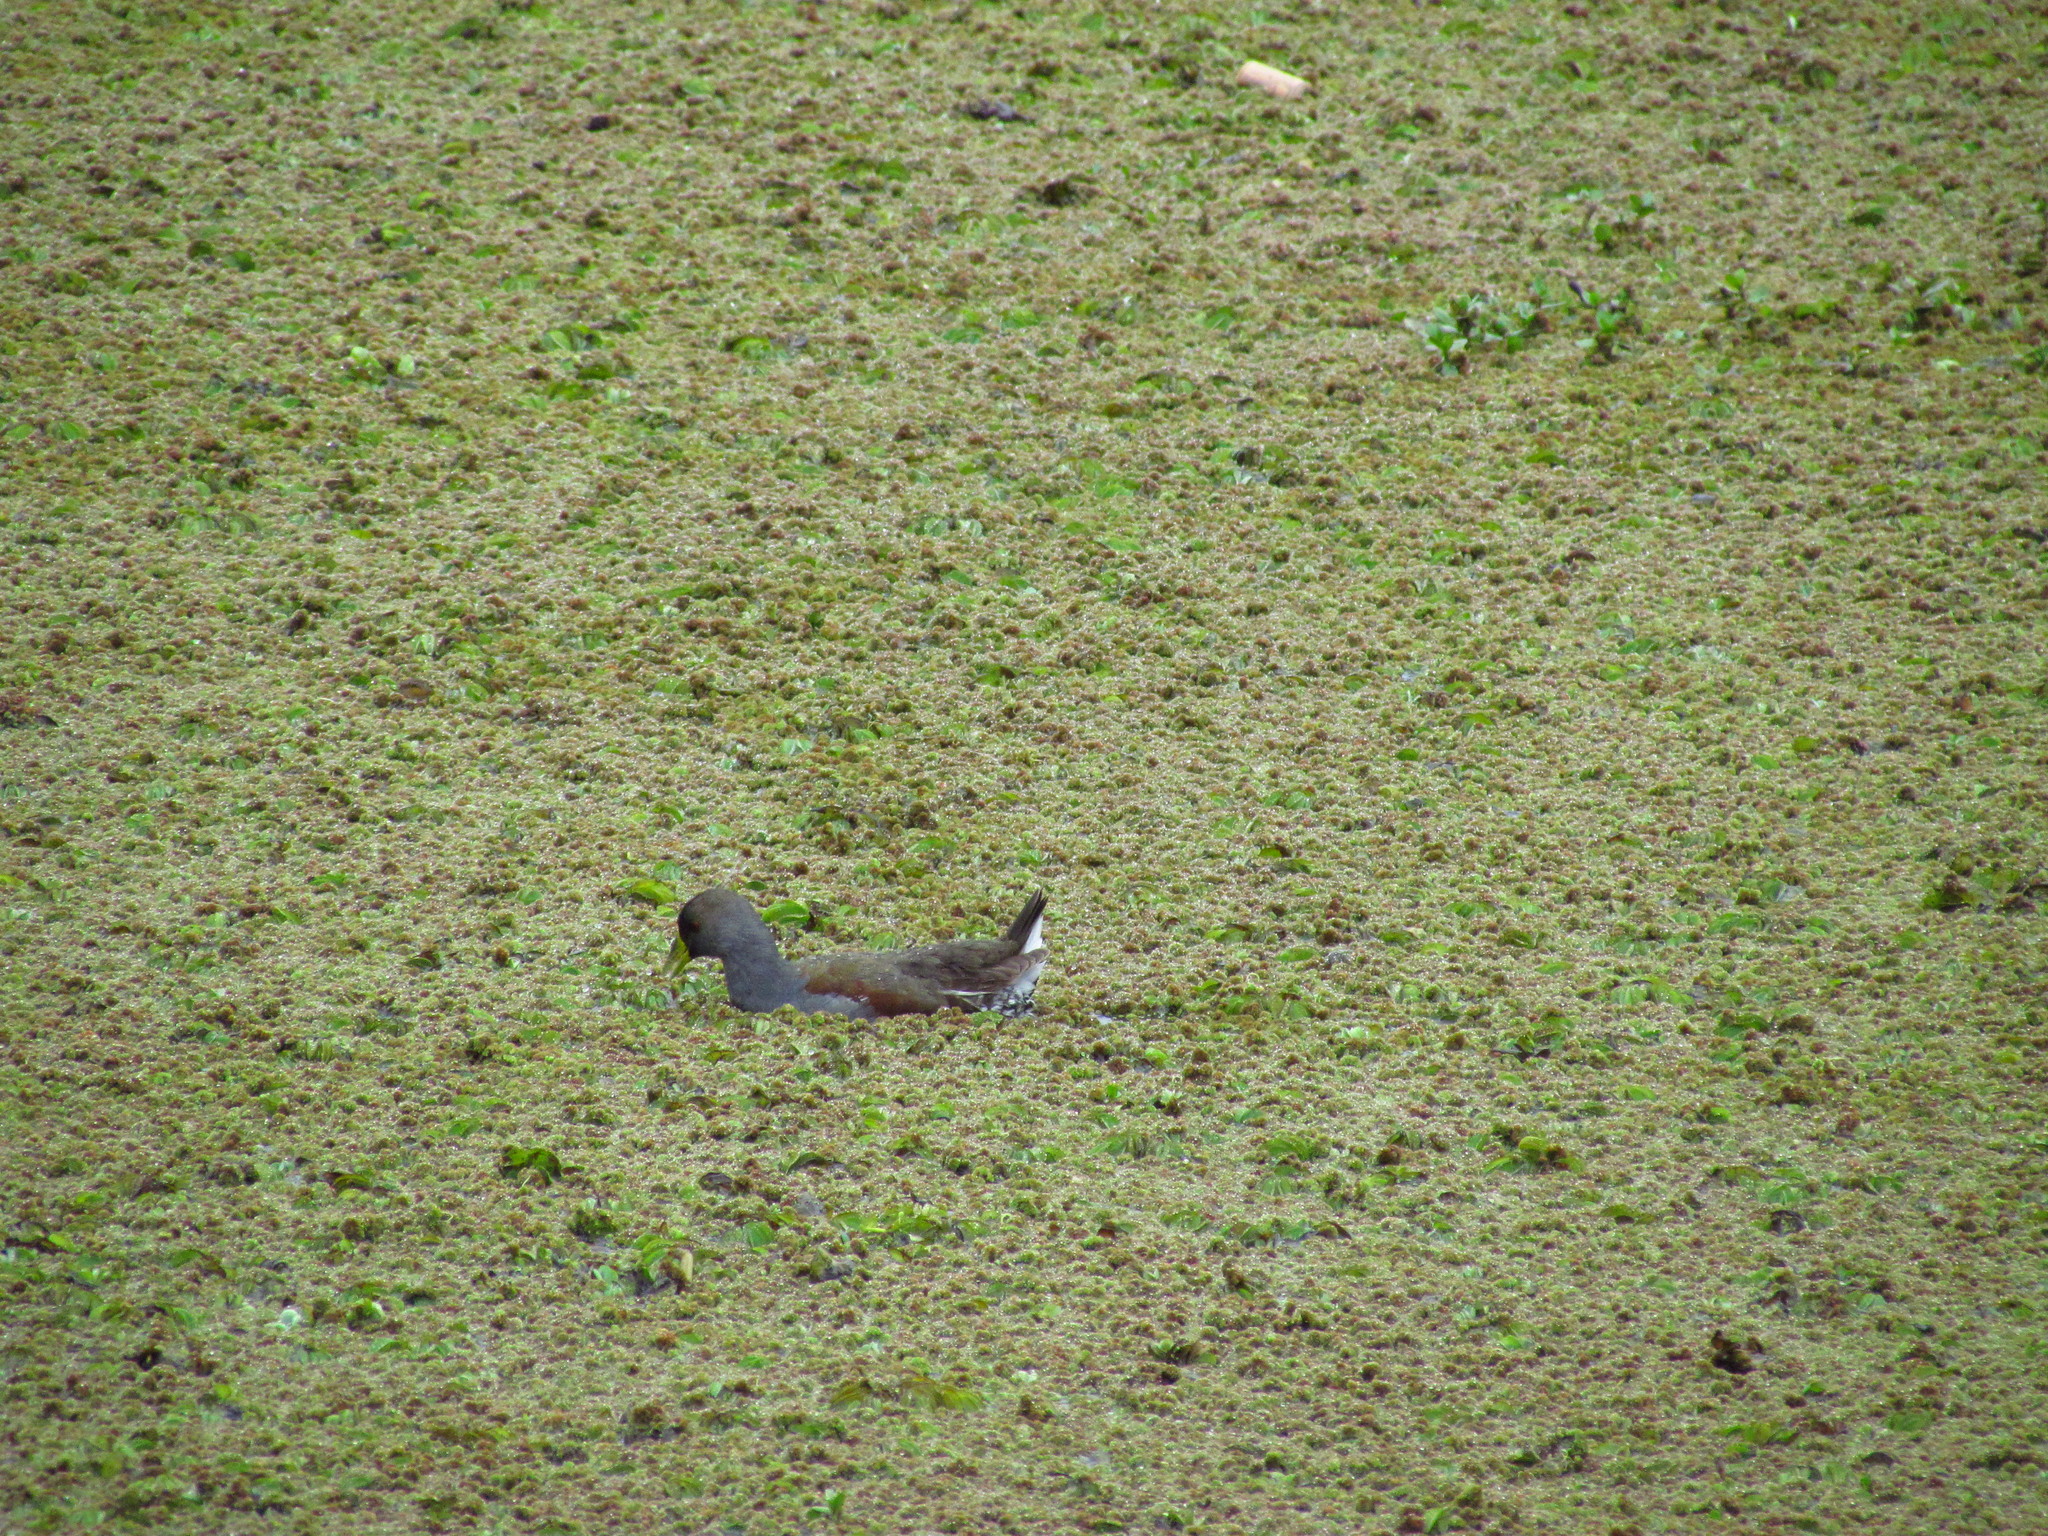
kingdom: Animalia
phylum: Chordata
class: Aves
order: Gruiformes
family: Rallidae
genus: Gallinula
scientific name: Gallinula melanops
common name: Spot-flanked gallinule
